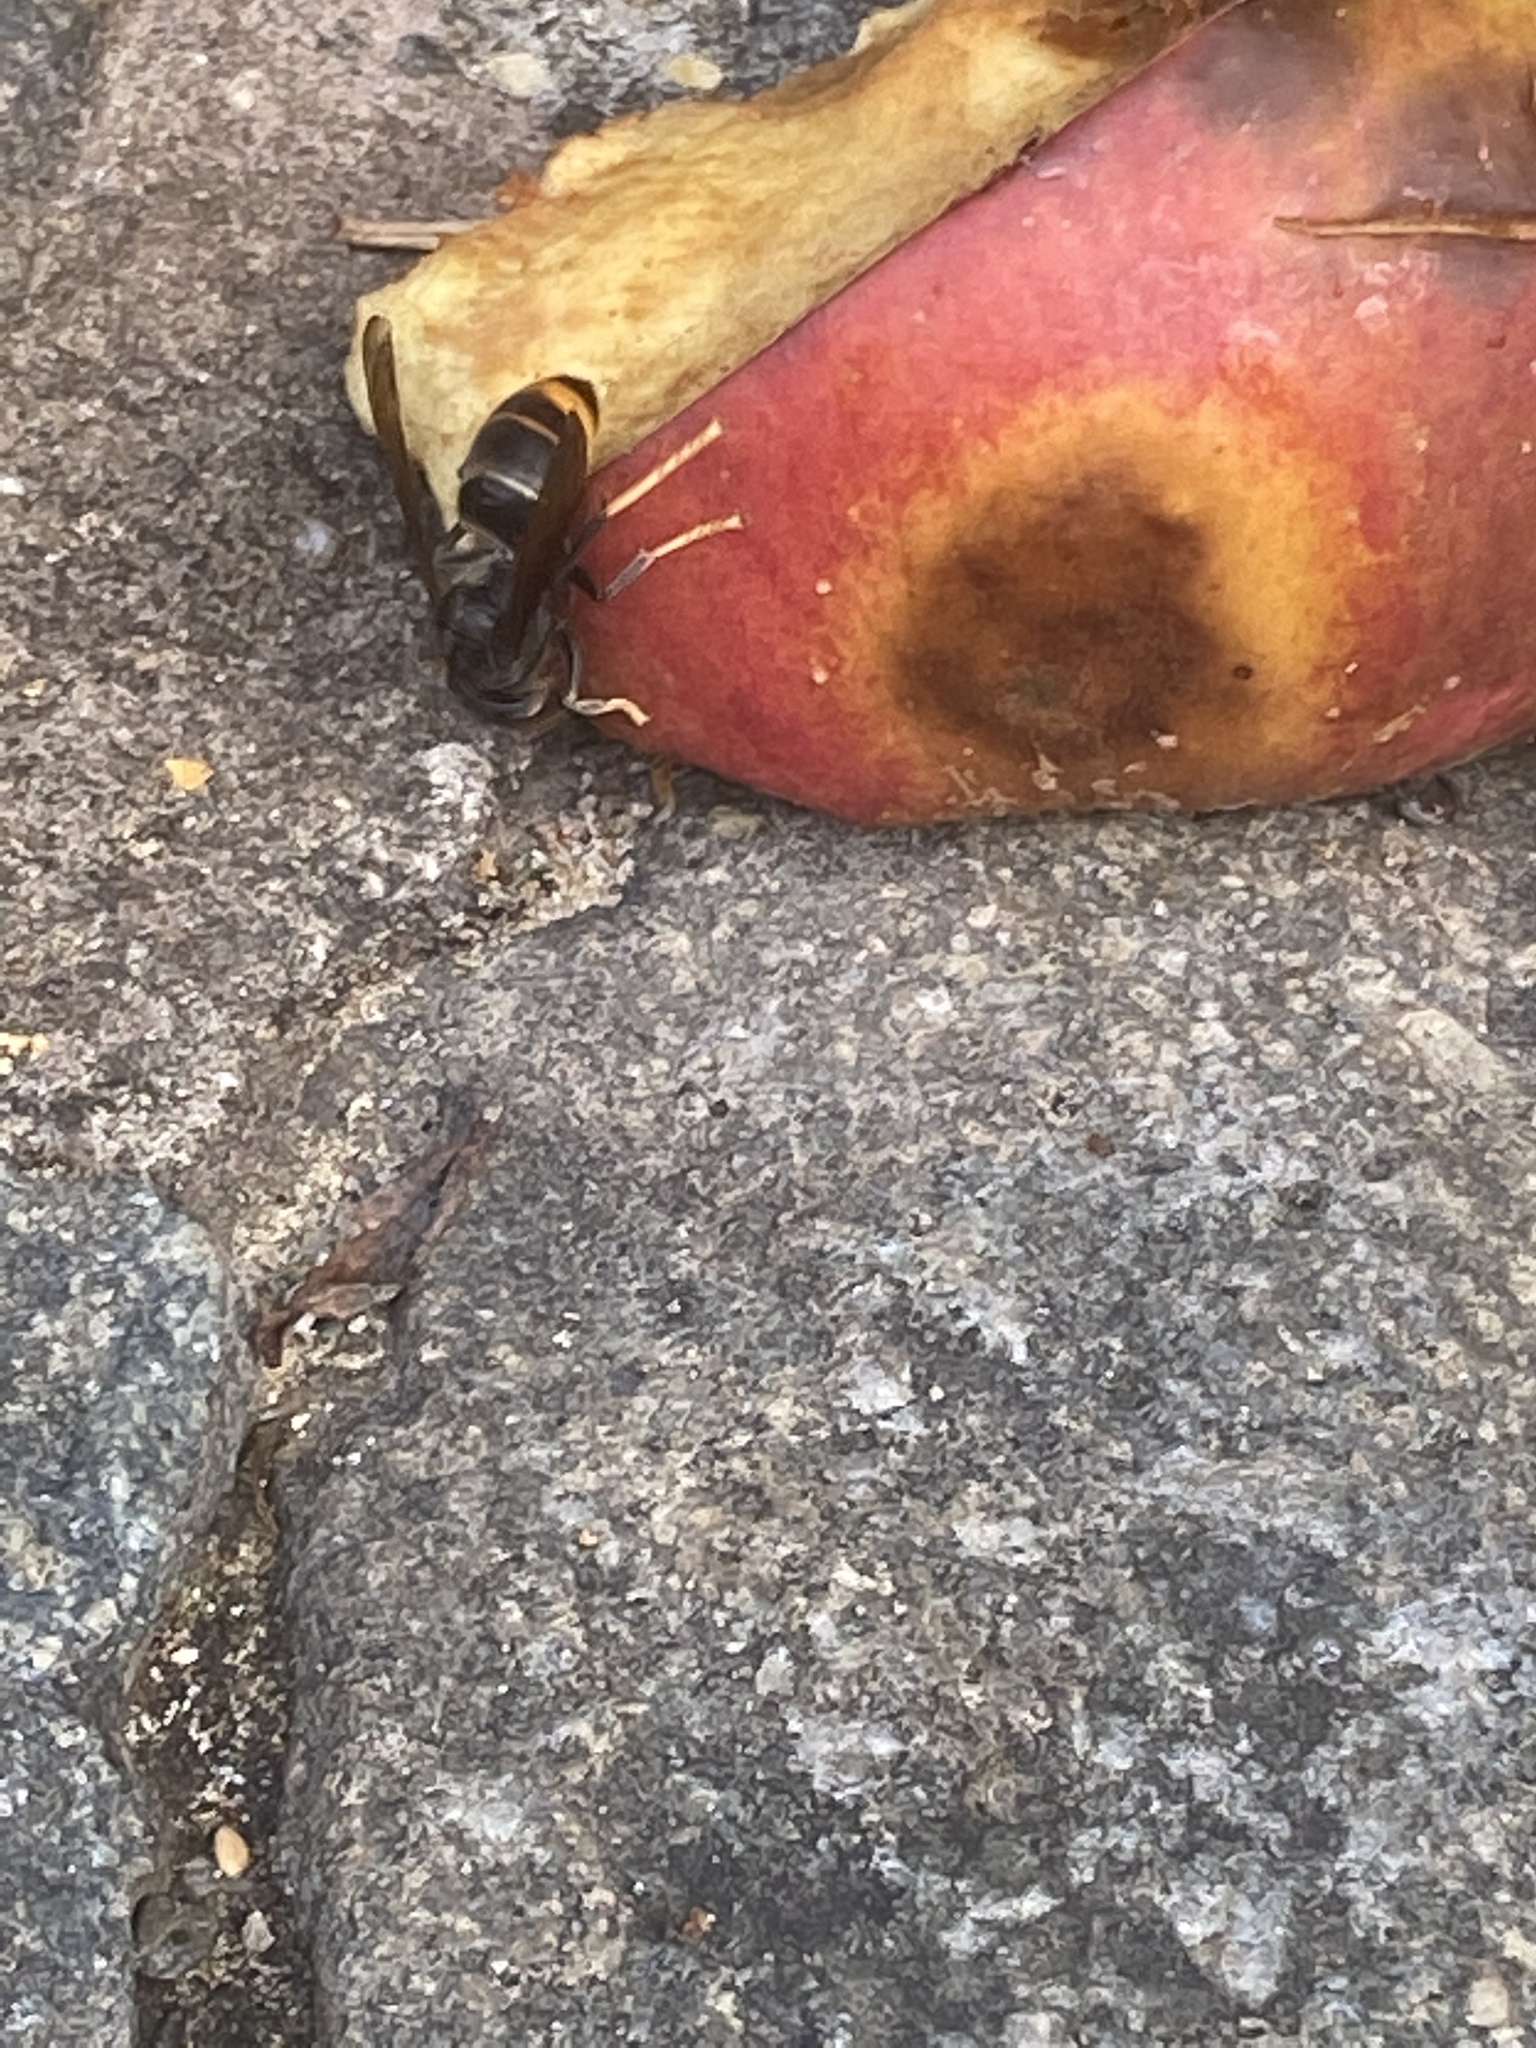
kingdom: Animalia
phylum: Arthropoda
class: Insecta
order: Hymenoptera
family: Vespidae
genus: Vespa
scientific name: Vespa velutina
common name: Asian hornet
